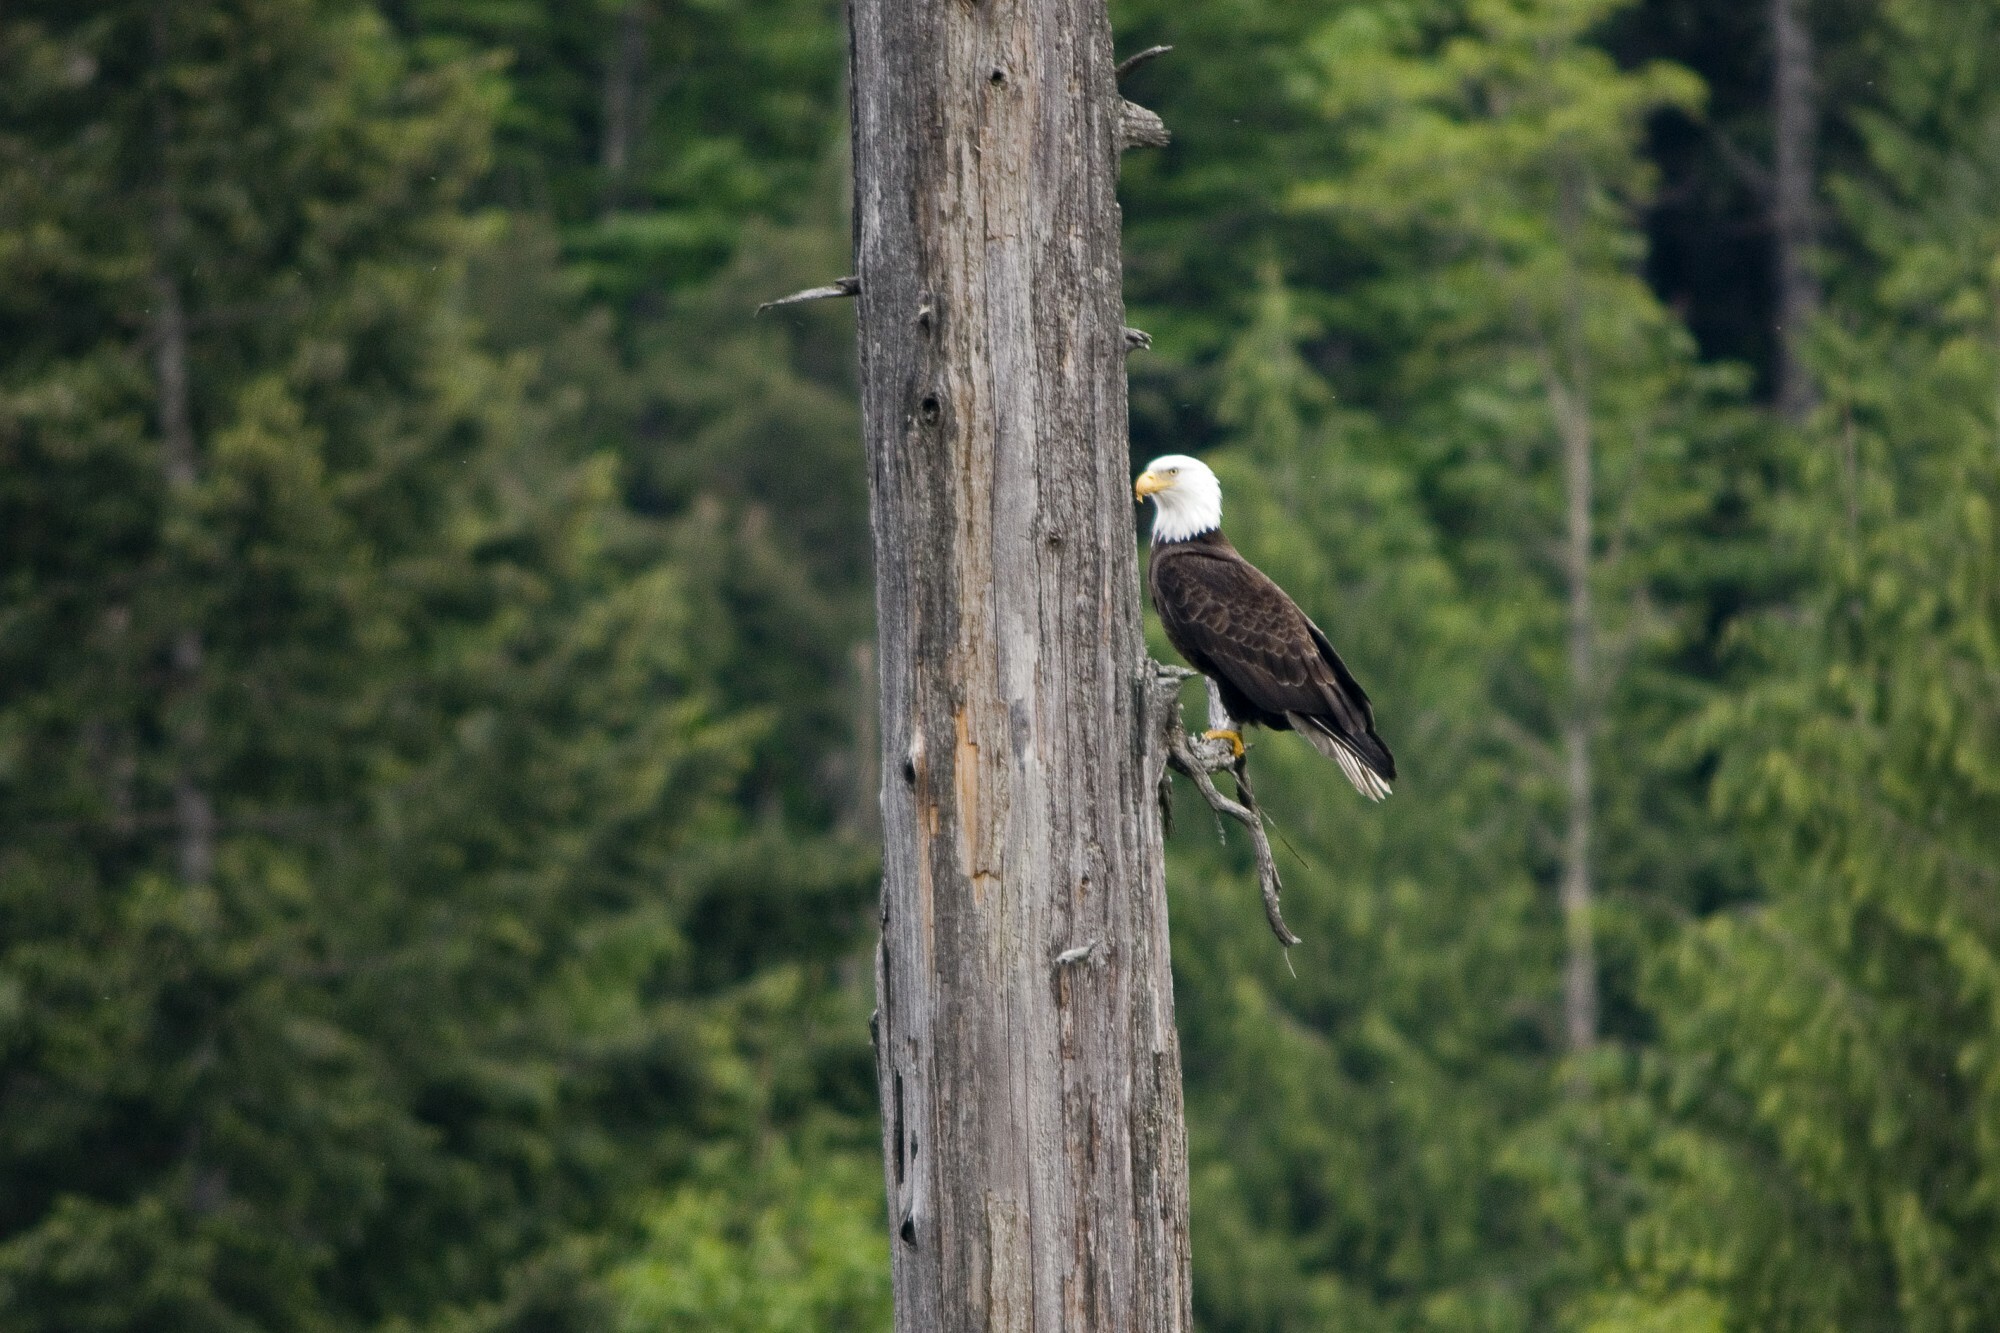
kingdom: Animalia
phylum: Chordata
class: Aves
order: Accipitriformes
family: Accipitridae
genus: Haliaeetus
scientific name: Haliaeetus leucocephalus
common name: Bald eagle
